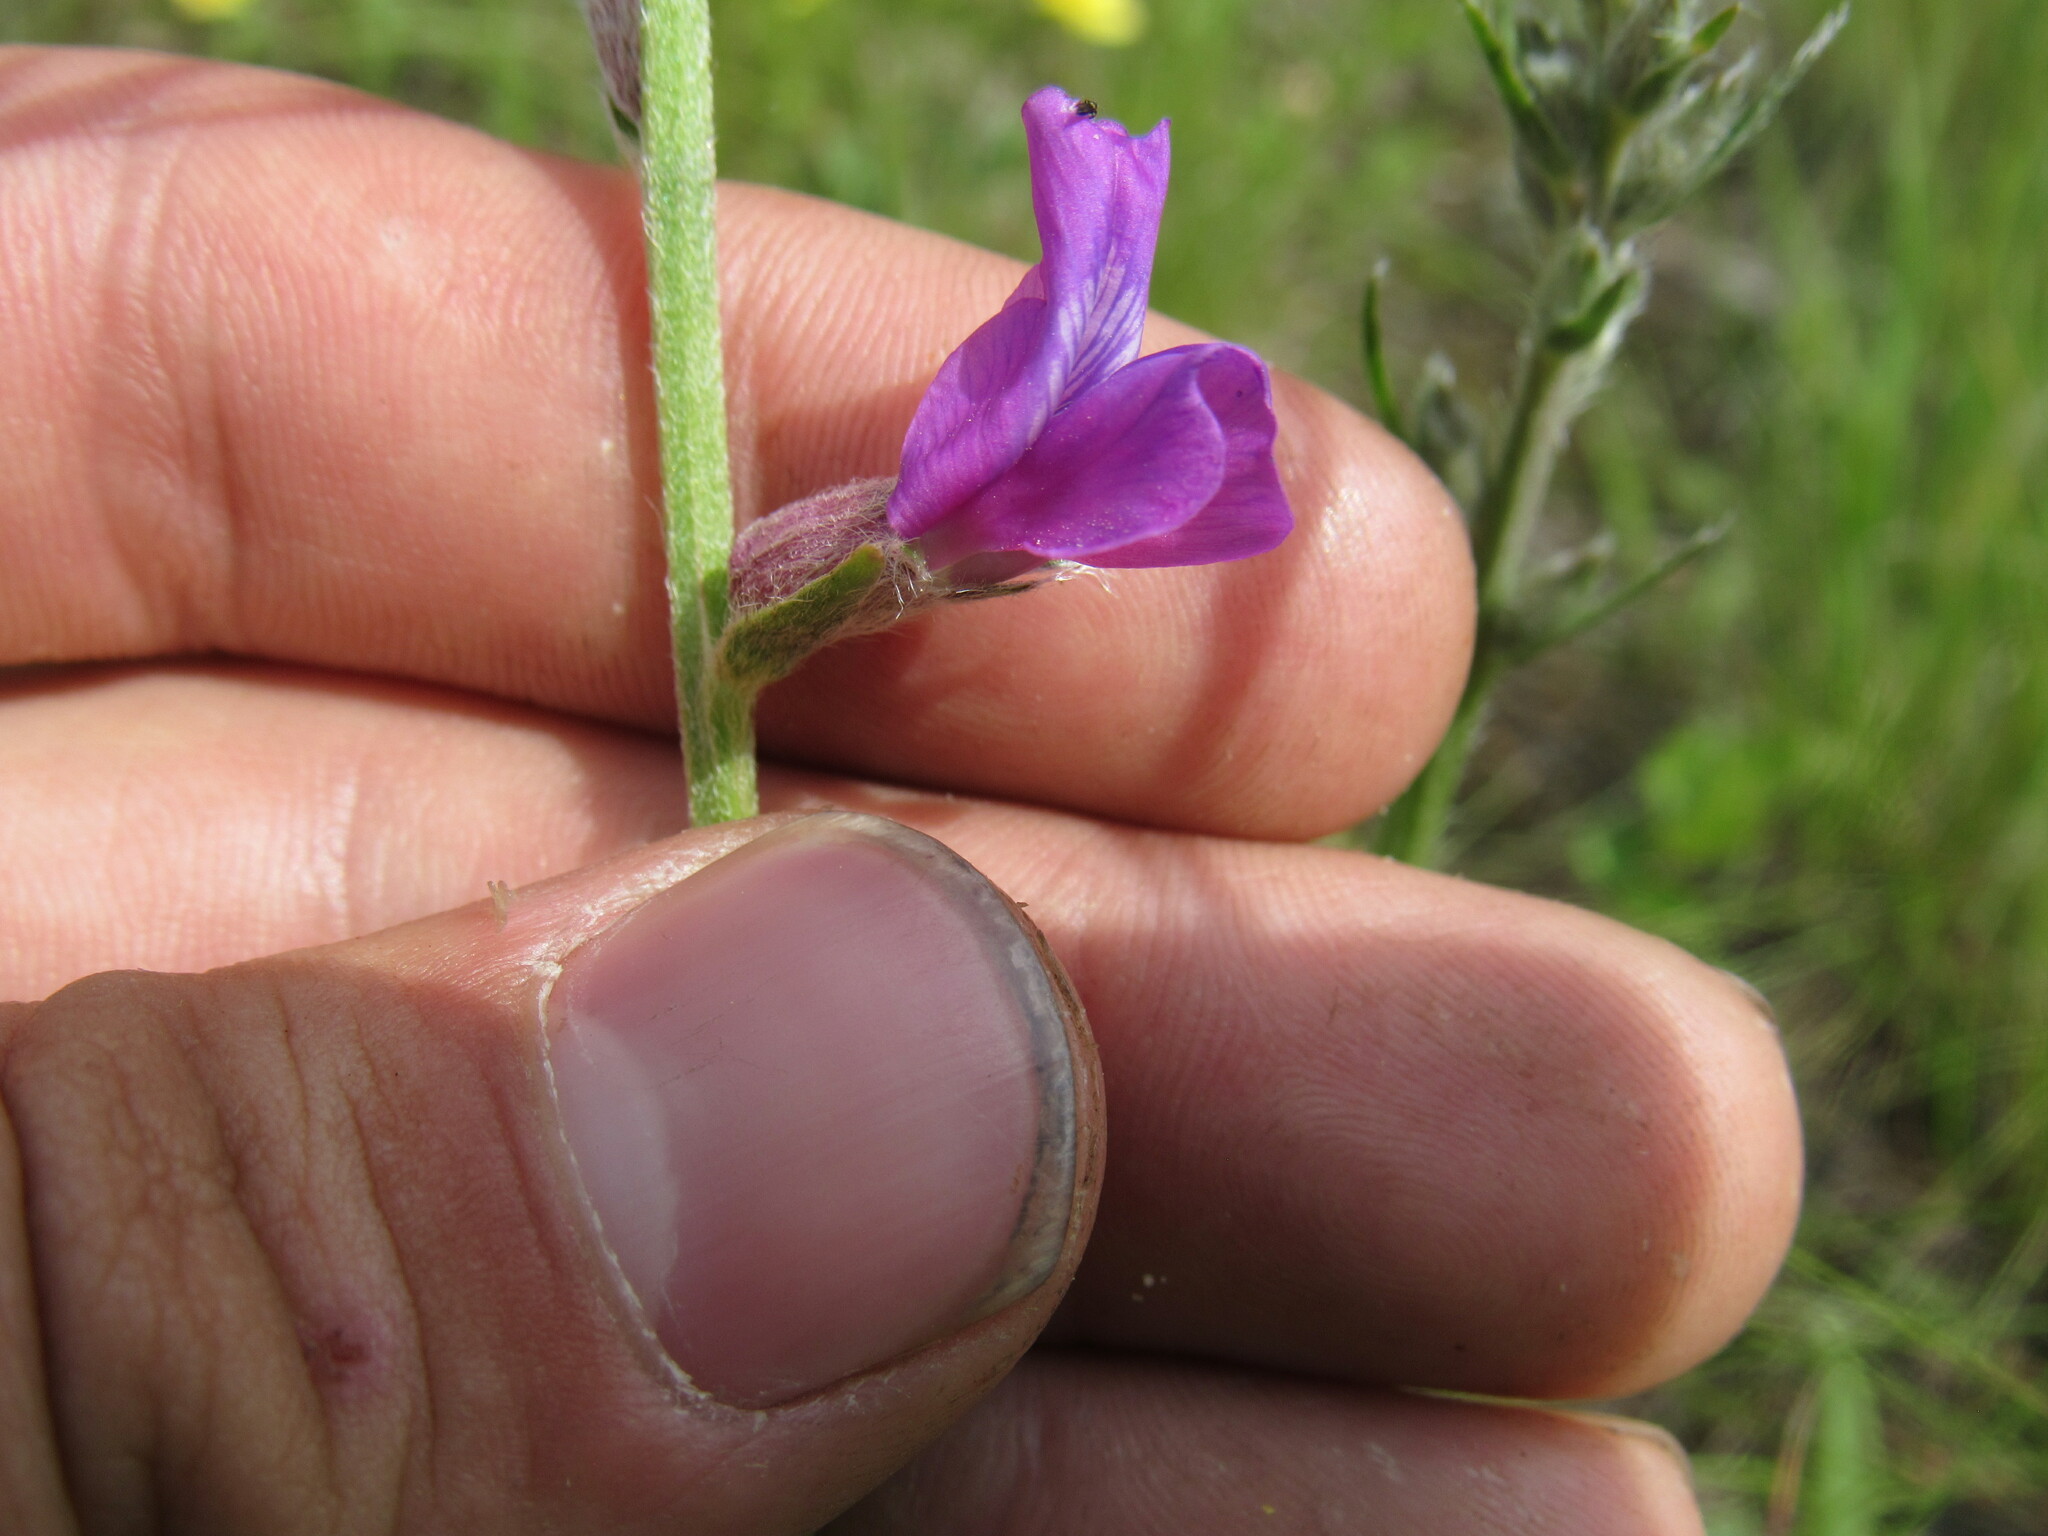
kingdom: Plantae
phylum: Tracheophyta
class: Magnoliopsida
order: Fabales
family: Fabaceae
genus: Oxytropis
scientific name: Oxytropis lambertii
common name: Purple locoweed
